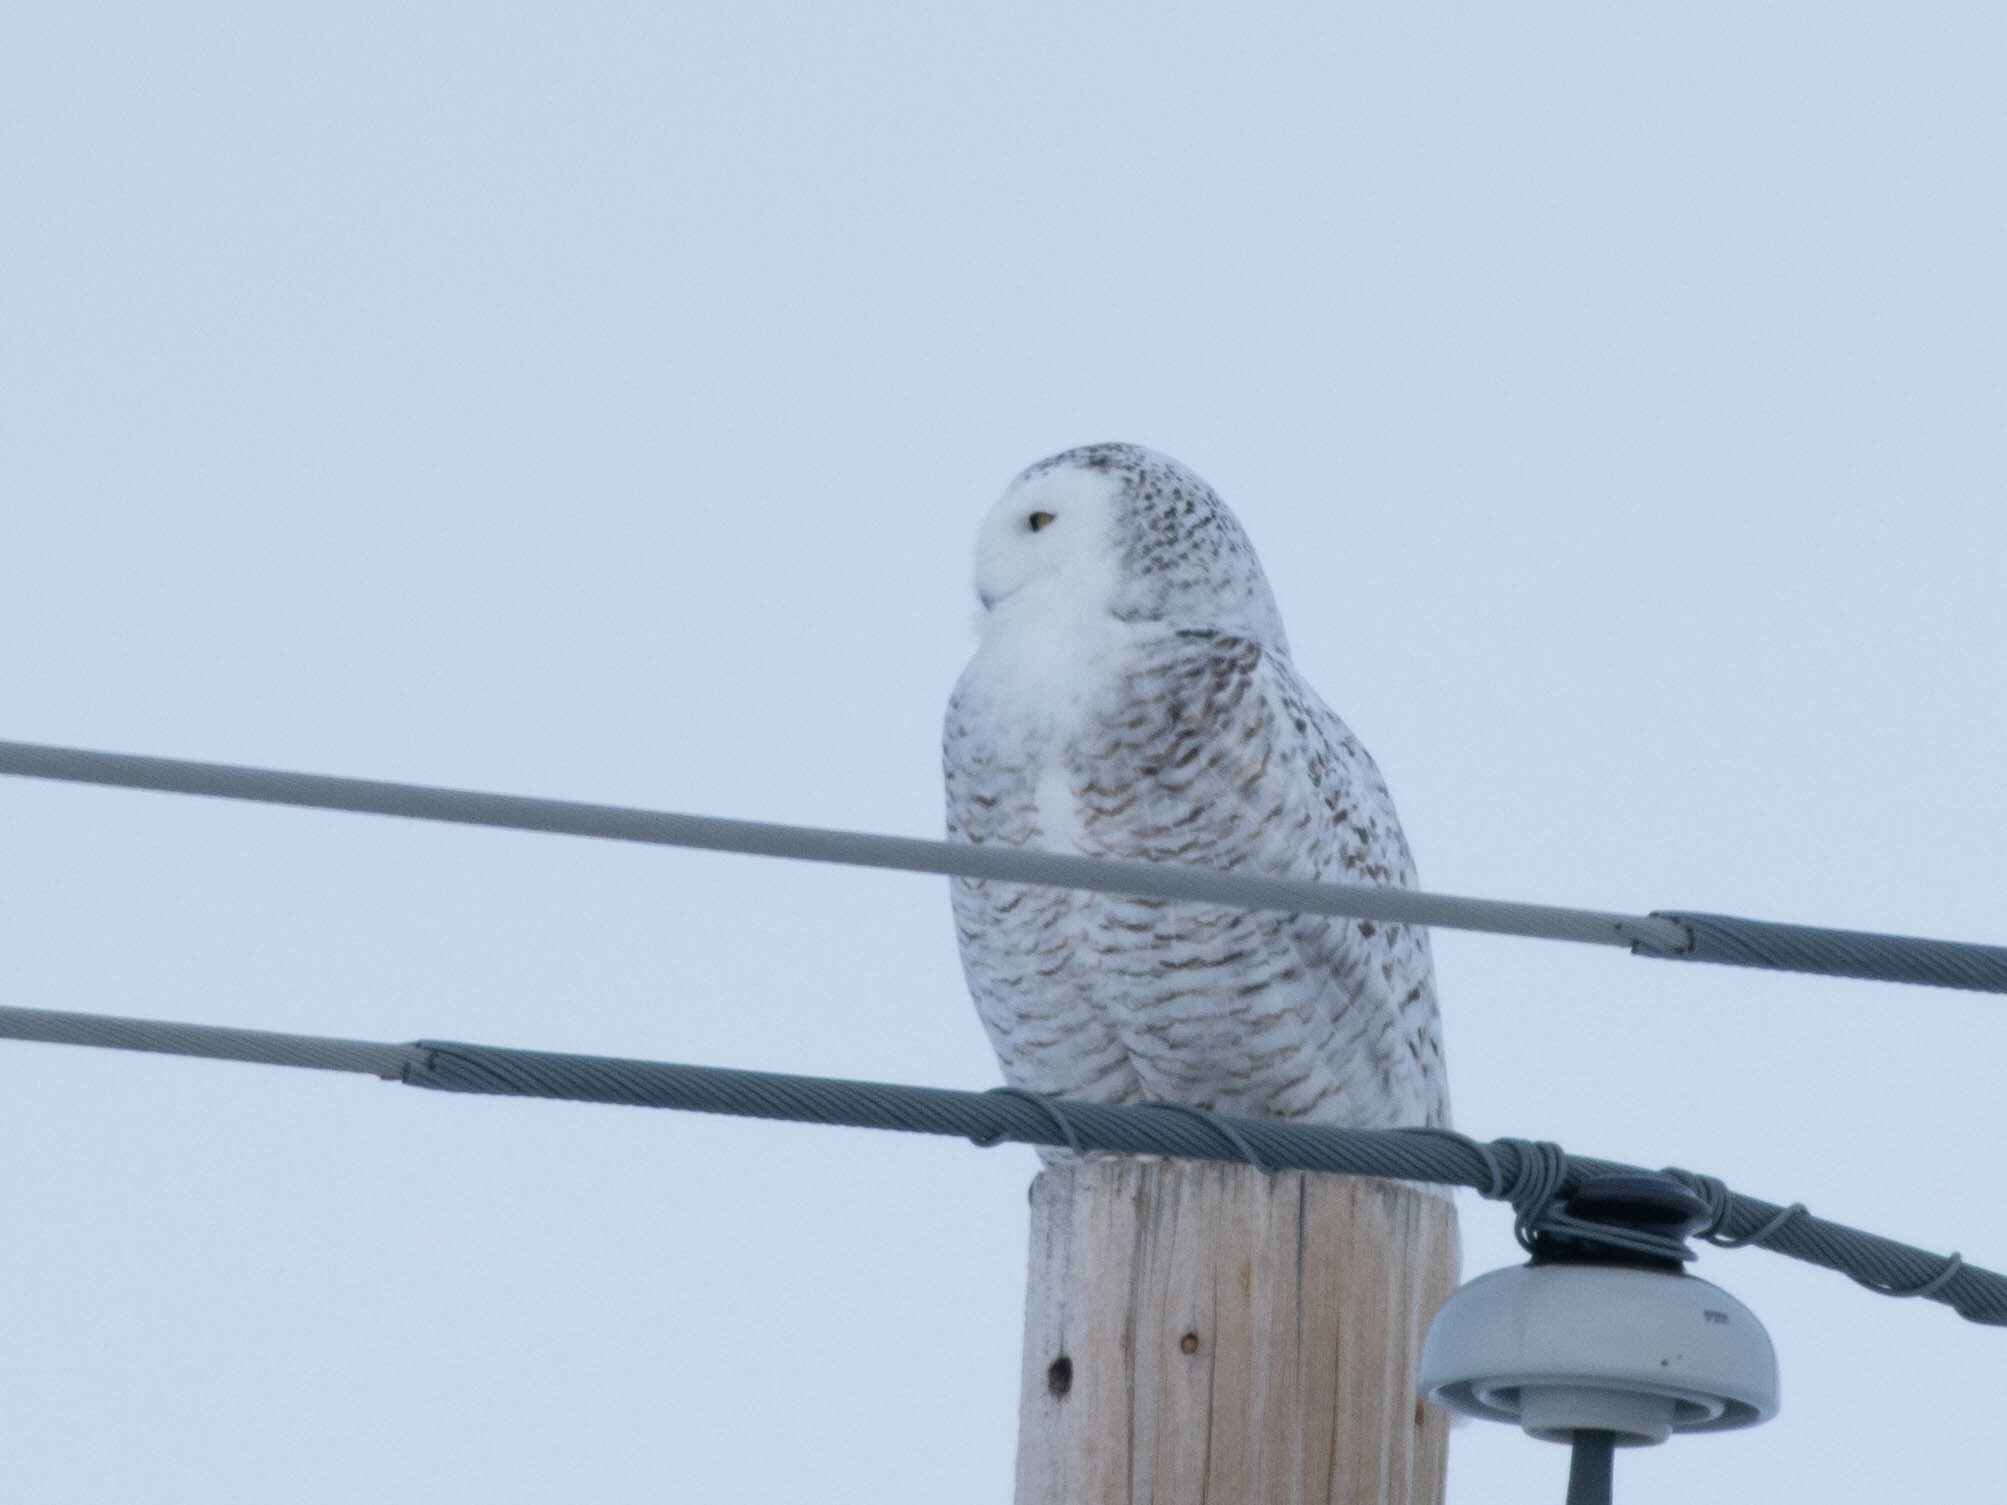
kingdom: Animalia
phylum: Chordata
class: Aves
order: Strigiformes
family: Strigidae
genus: Bubo
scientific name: Bubo scandiacus
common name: Snowy owl
